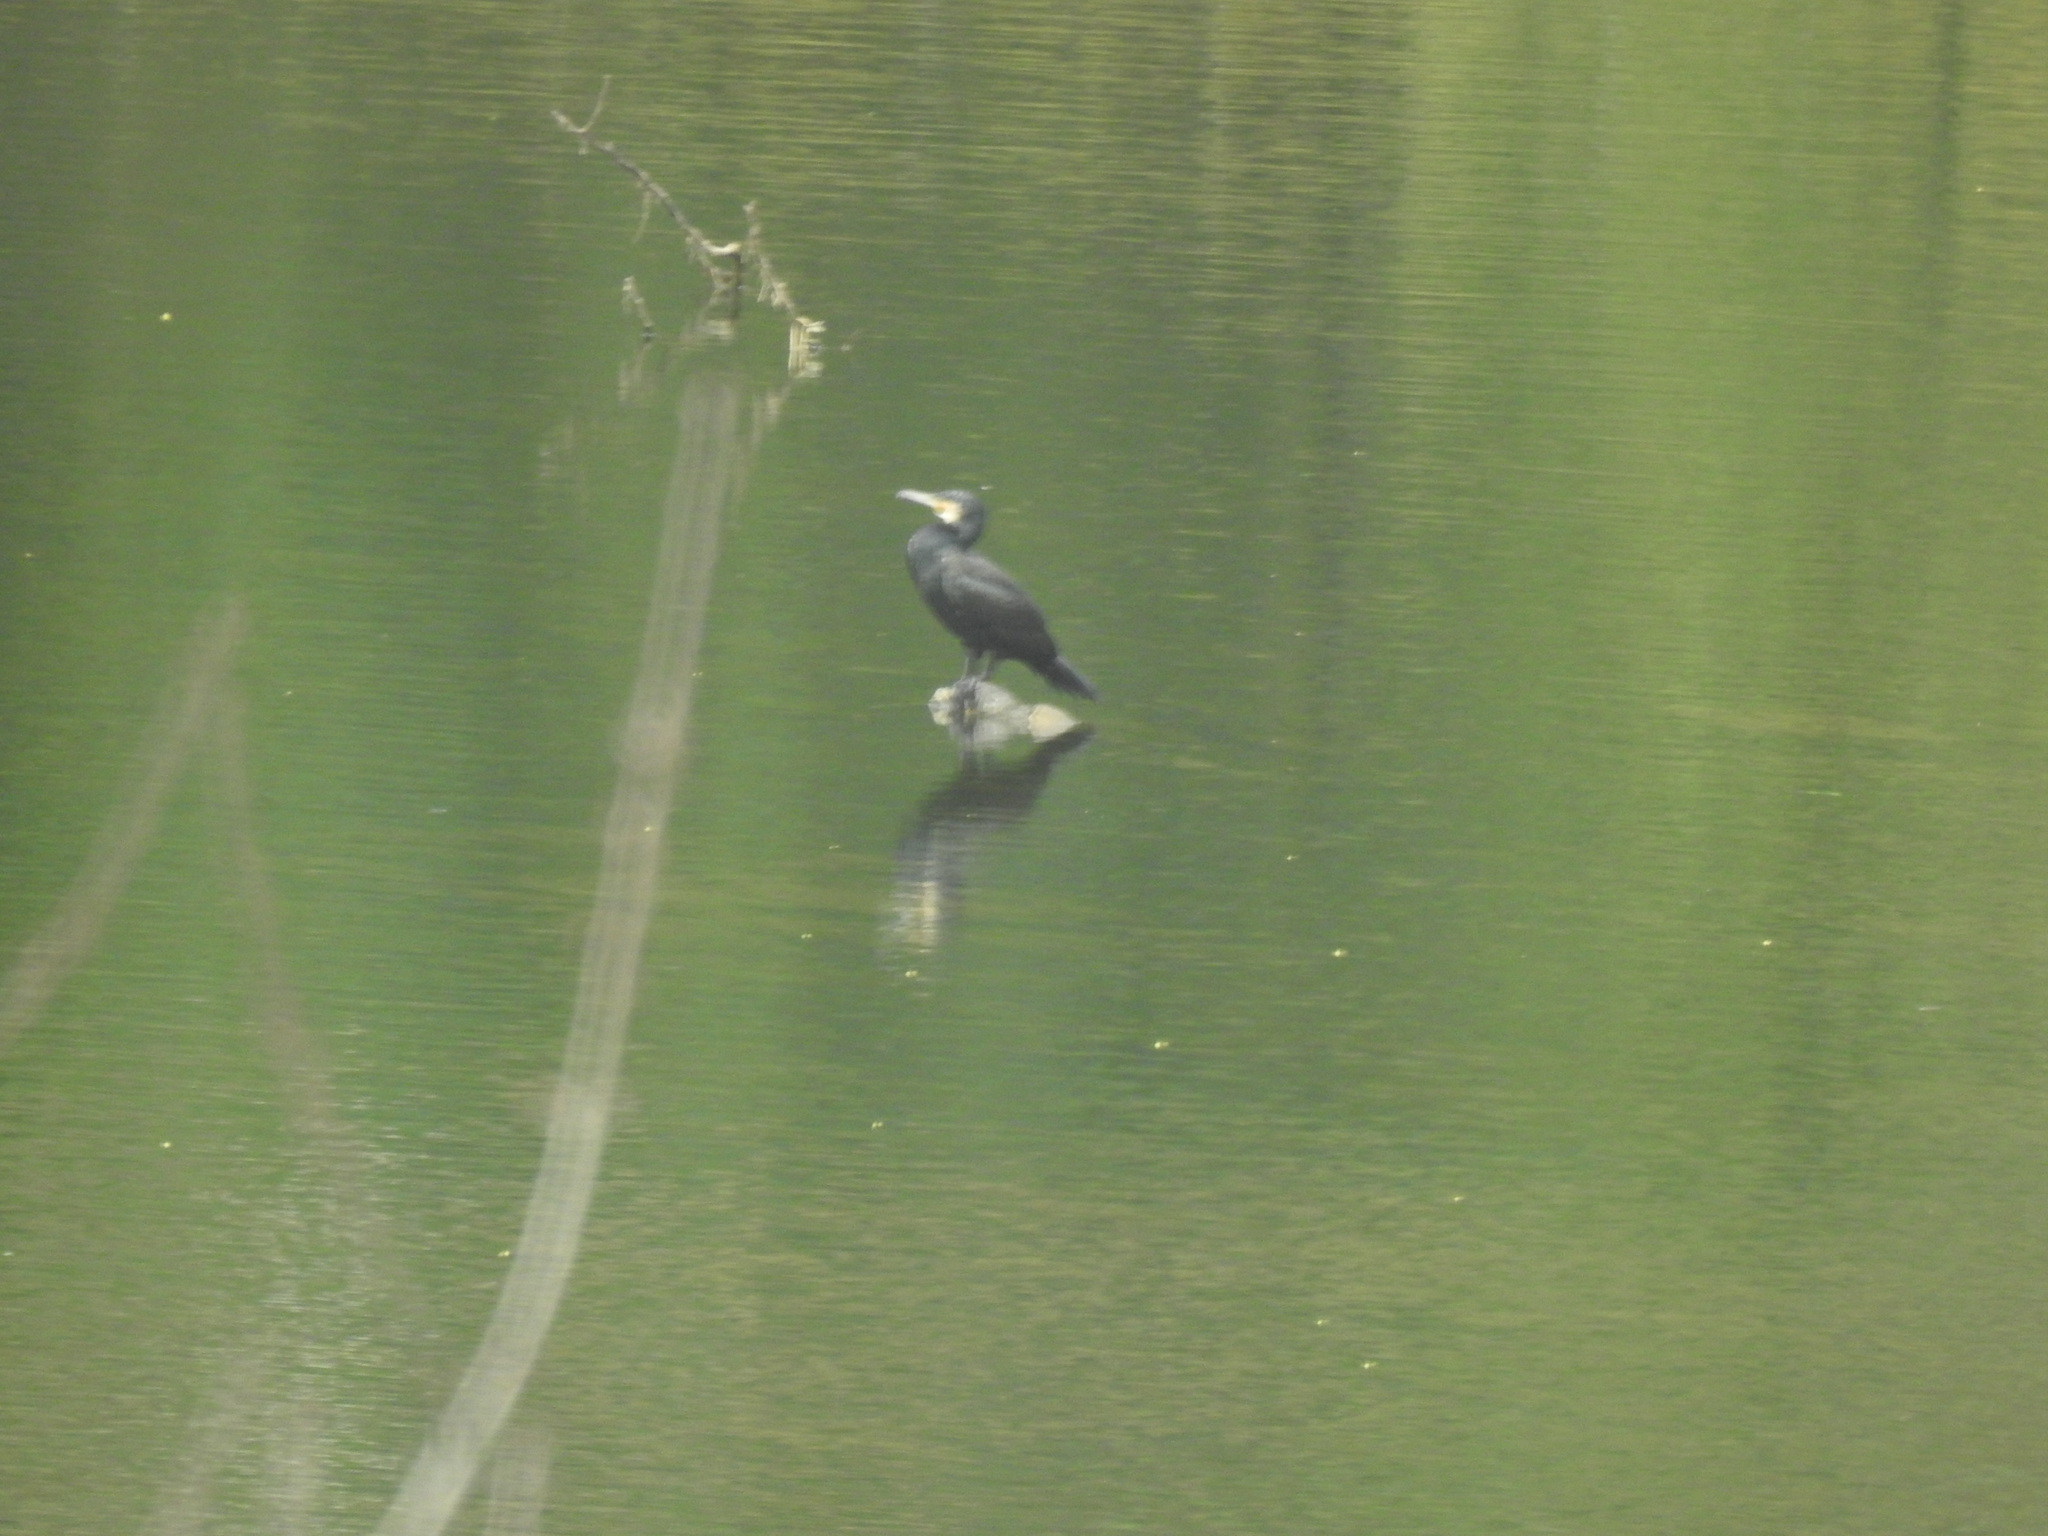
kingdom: Animalia
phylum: Chordata
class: Aves
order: Suliformes
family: Phalacrocoracidae
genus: Phalacrocorax
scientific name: Phalacrocorax carbo
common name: Great cormorant
